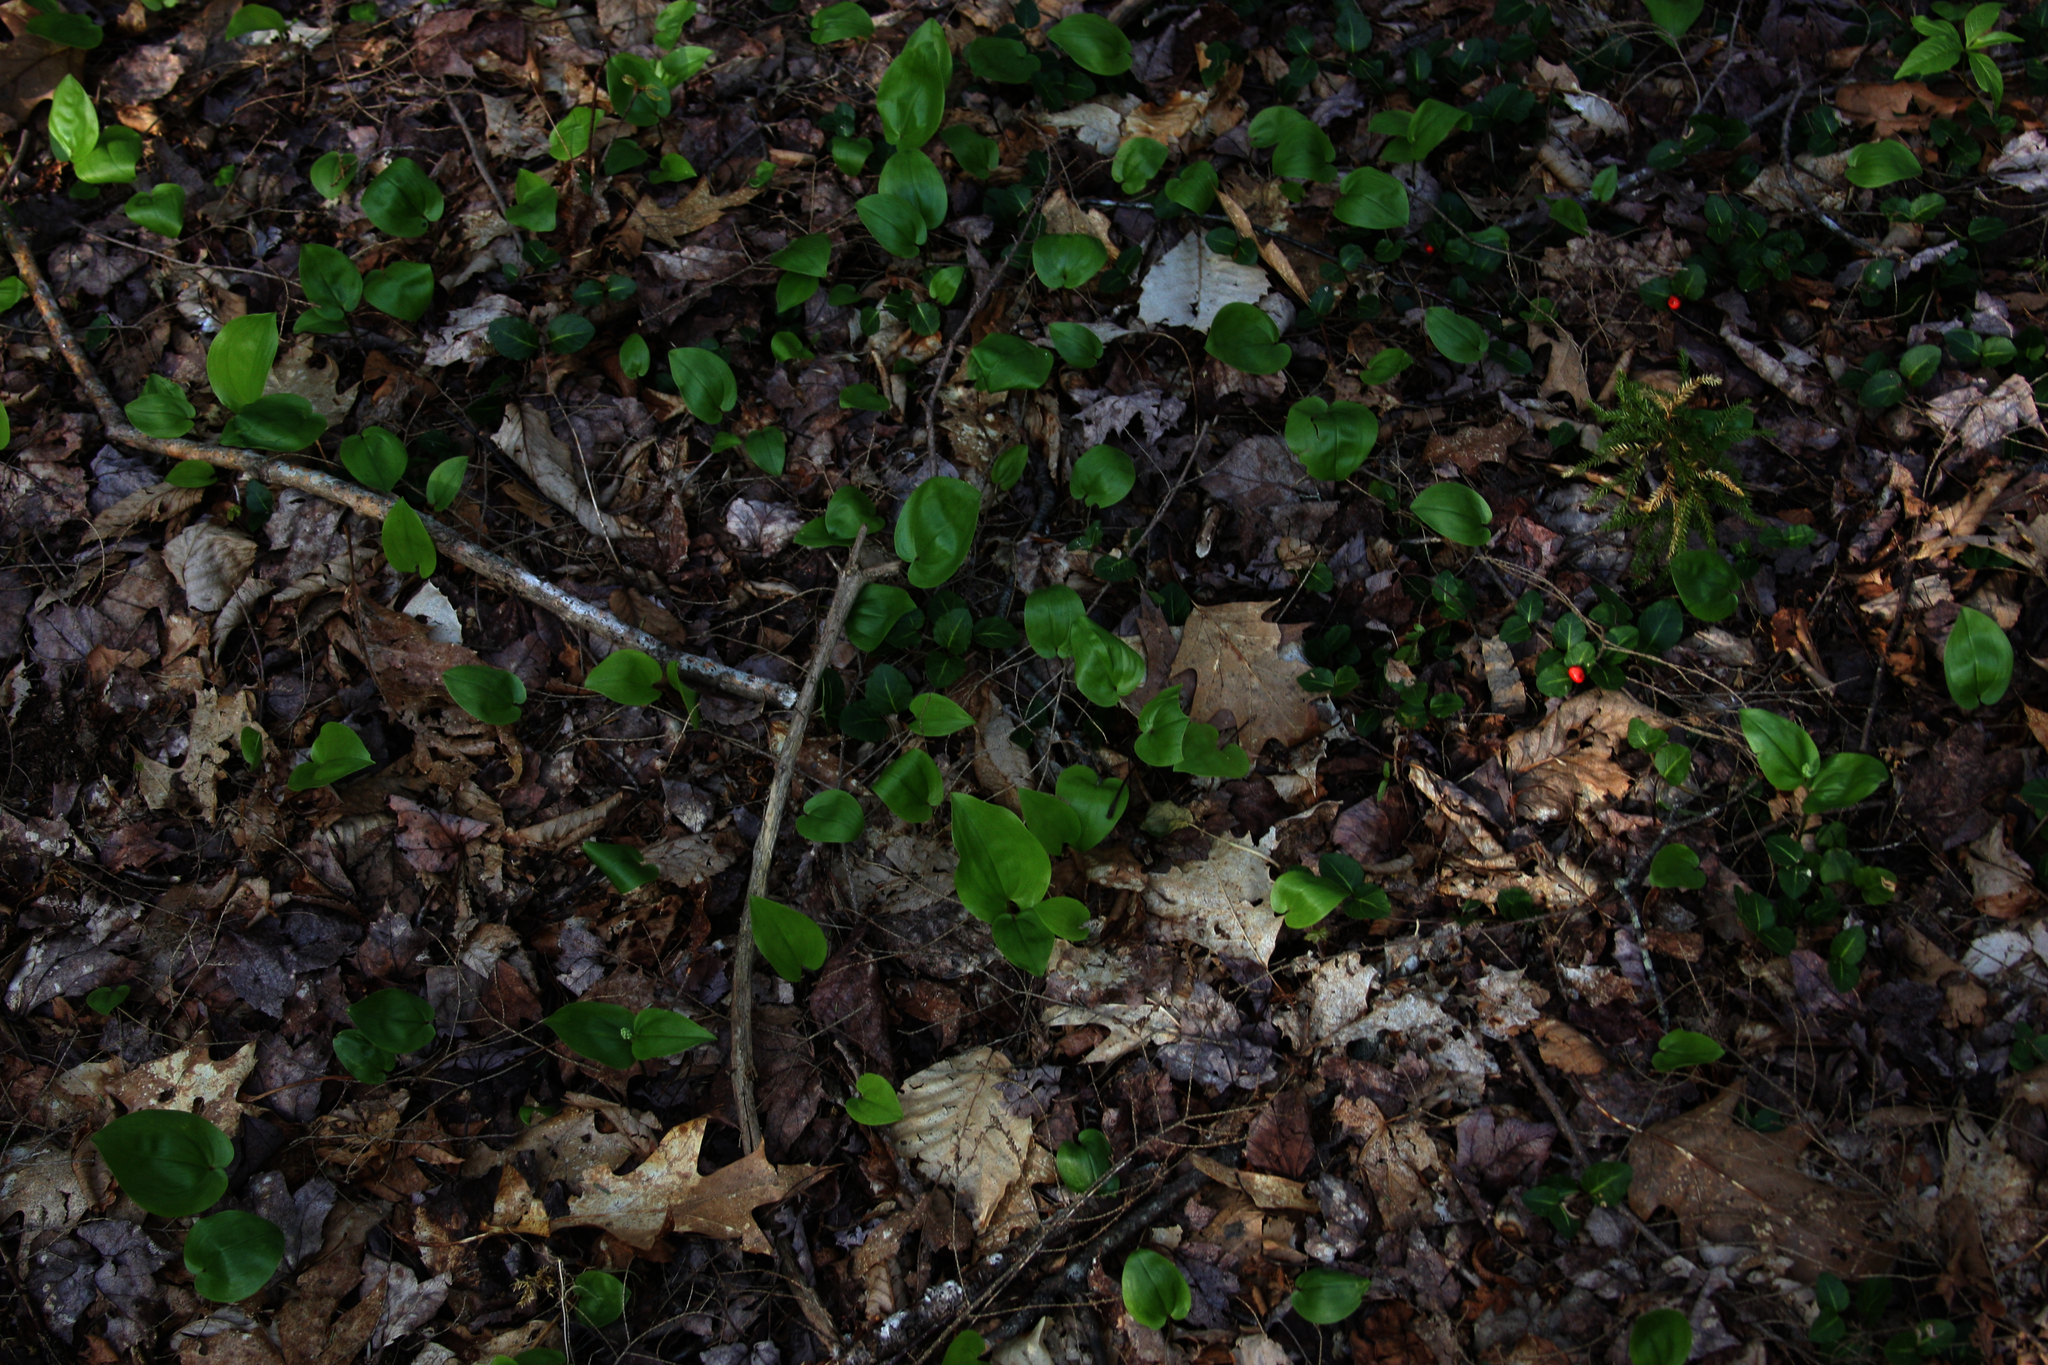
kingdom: Plantae
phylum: Tracheophyta
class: Liliopsida
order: Asparagales
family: Asparagaceae
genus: Maianthemum
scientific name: Maianthemum canadense
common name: False lily-of-the-valley
